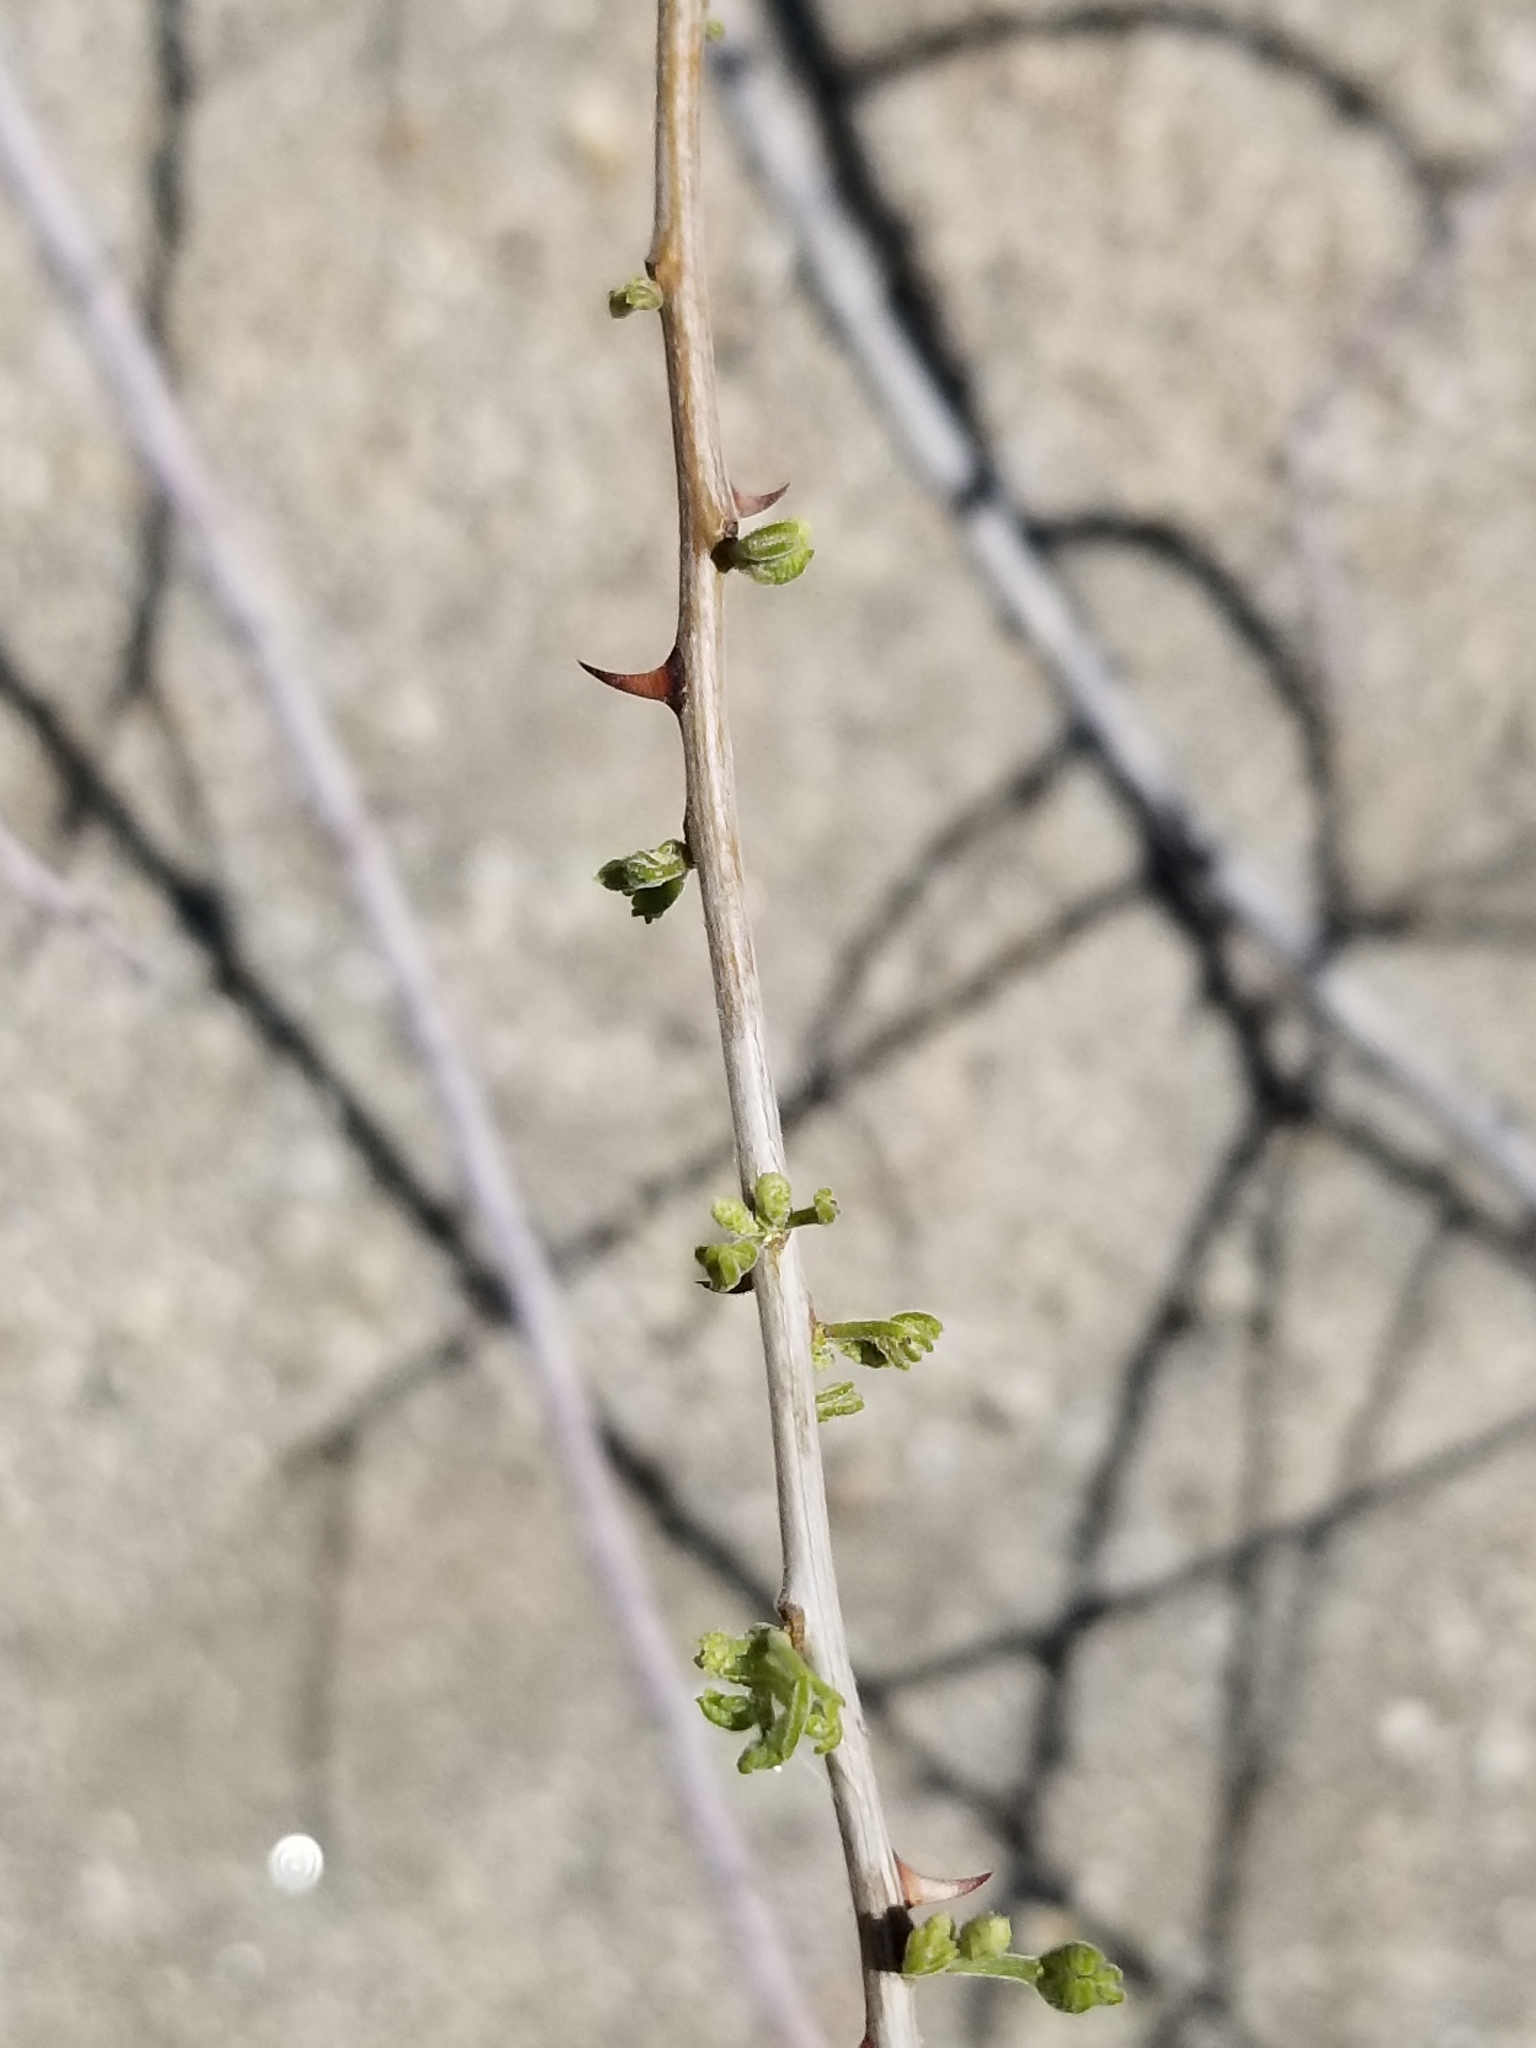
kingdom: Plantae
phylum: Tracheophyta
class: Magnoliopsida
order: Fabales
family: Fabaceae
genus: Senegalia
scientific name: Senegalia greggii
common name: Texas-mimosa
